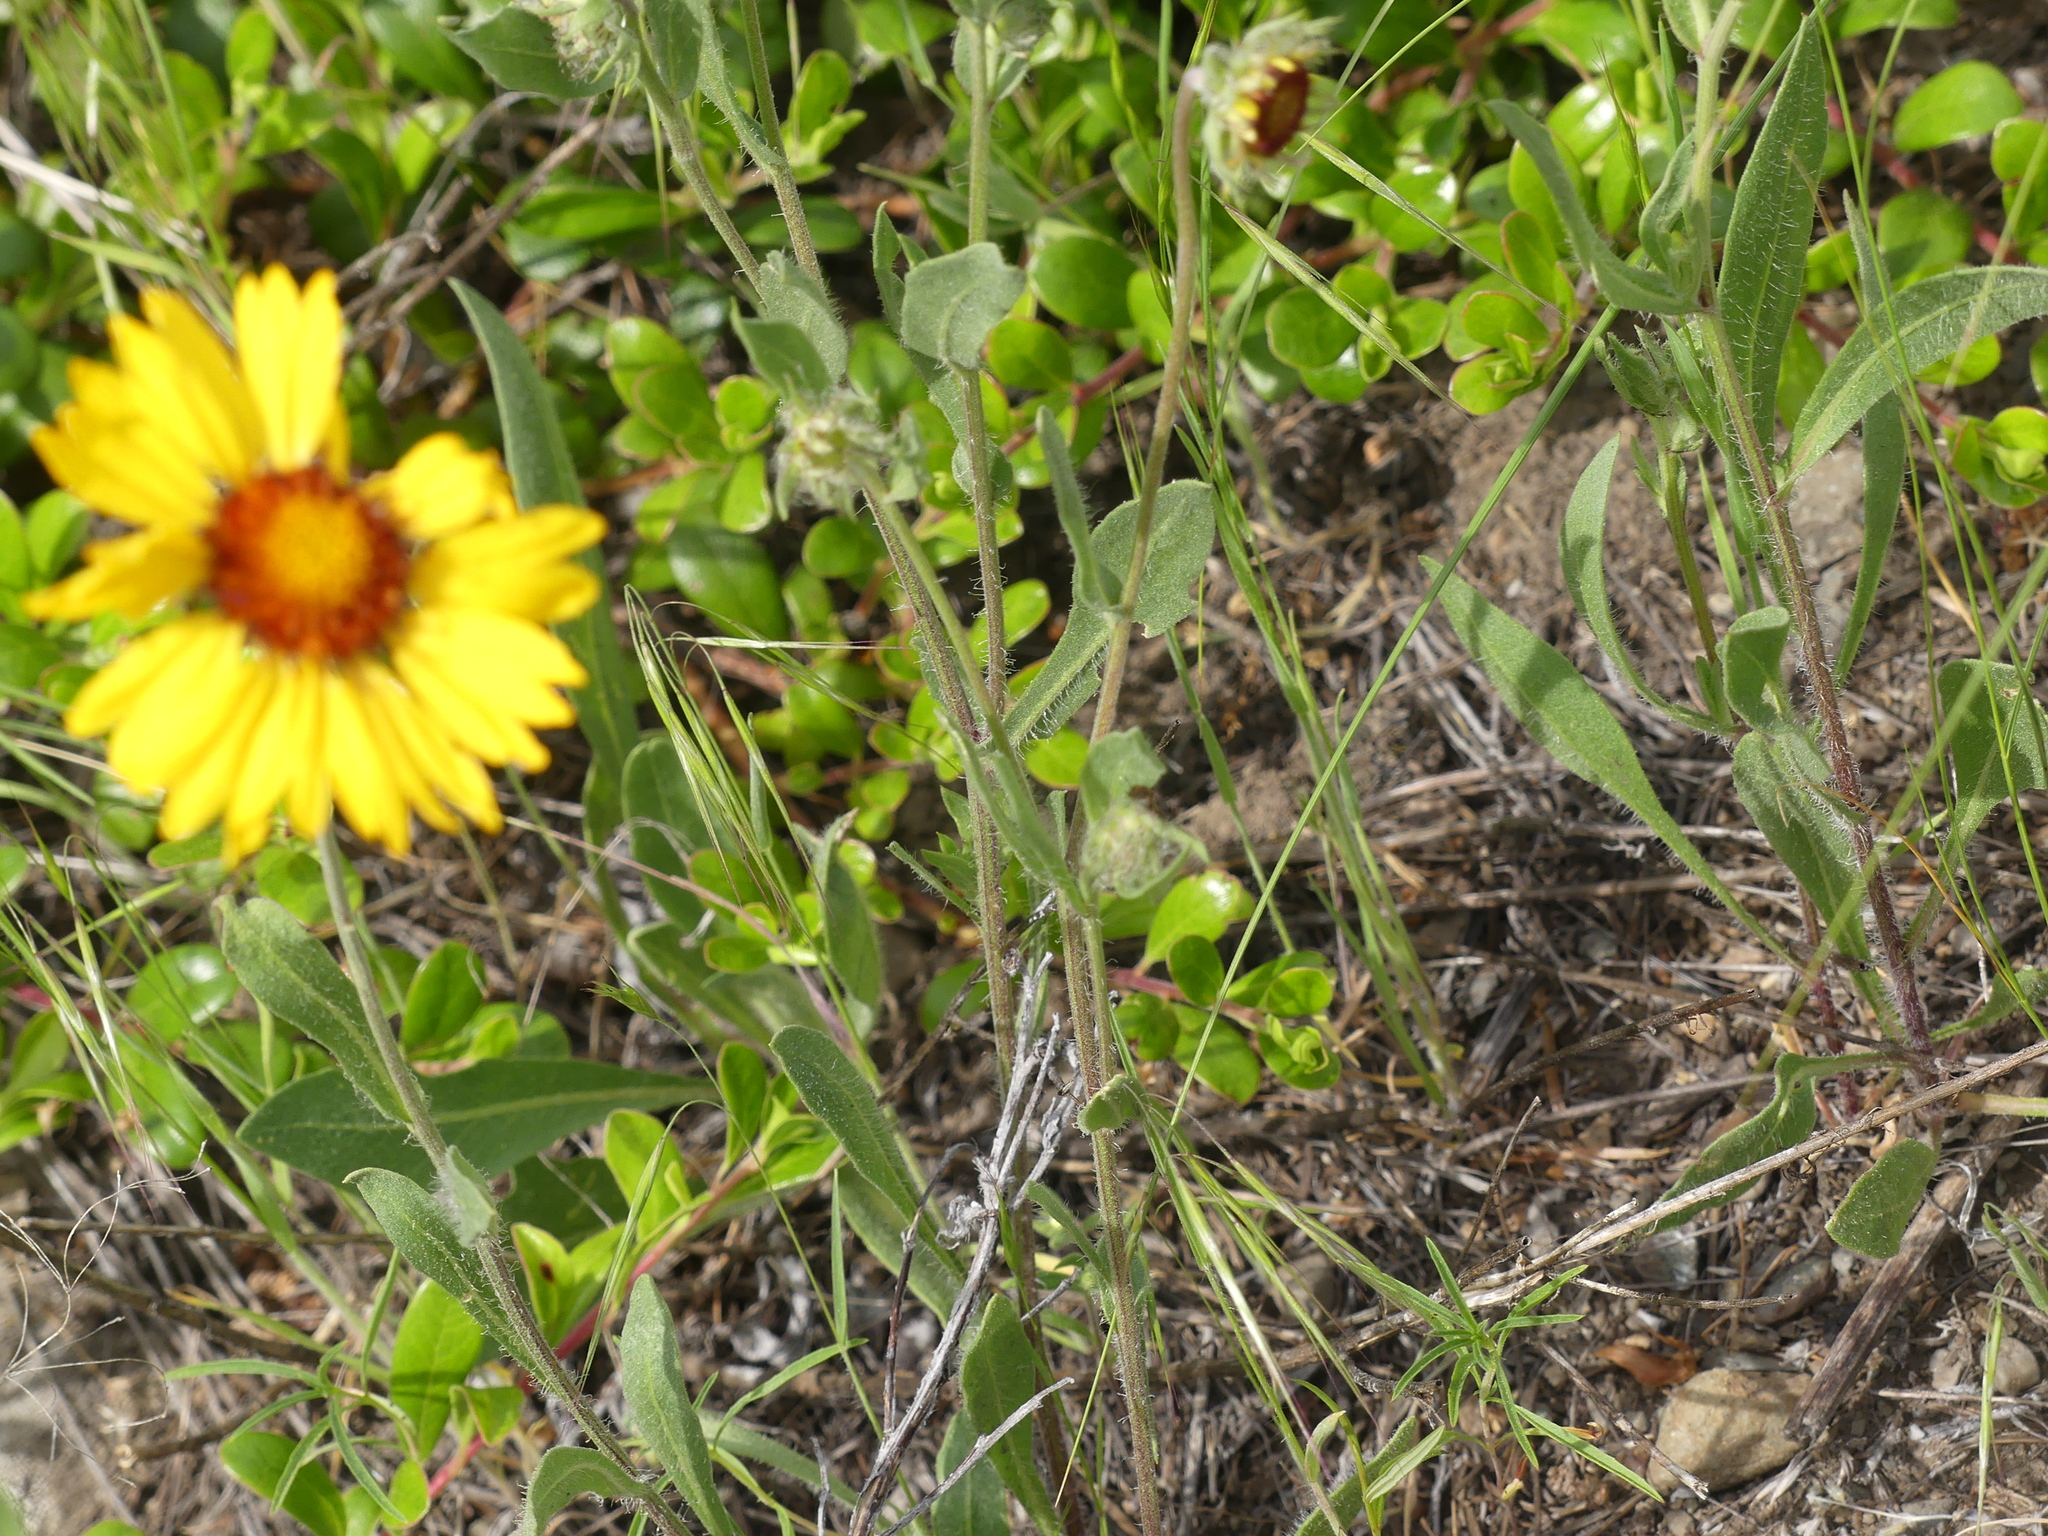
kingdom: Plantae
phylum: Tracheophyta
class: Magnoliopsida
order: Asterales
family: Asteraceae
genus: Gaillardia
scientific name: Gaillardia aristata
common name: Blanket-flower
